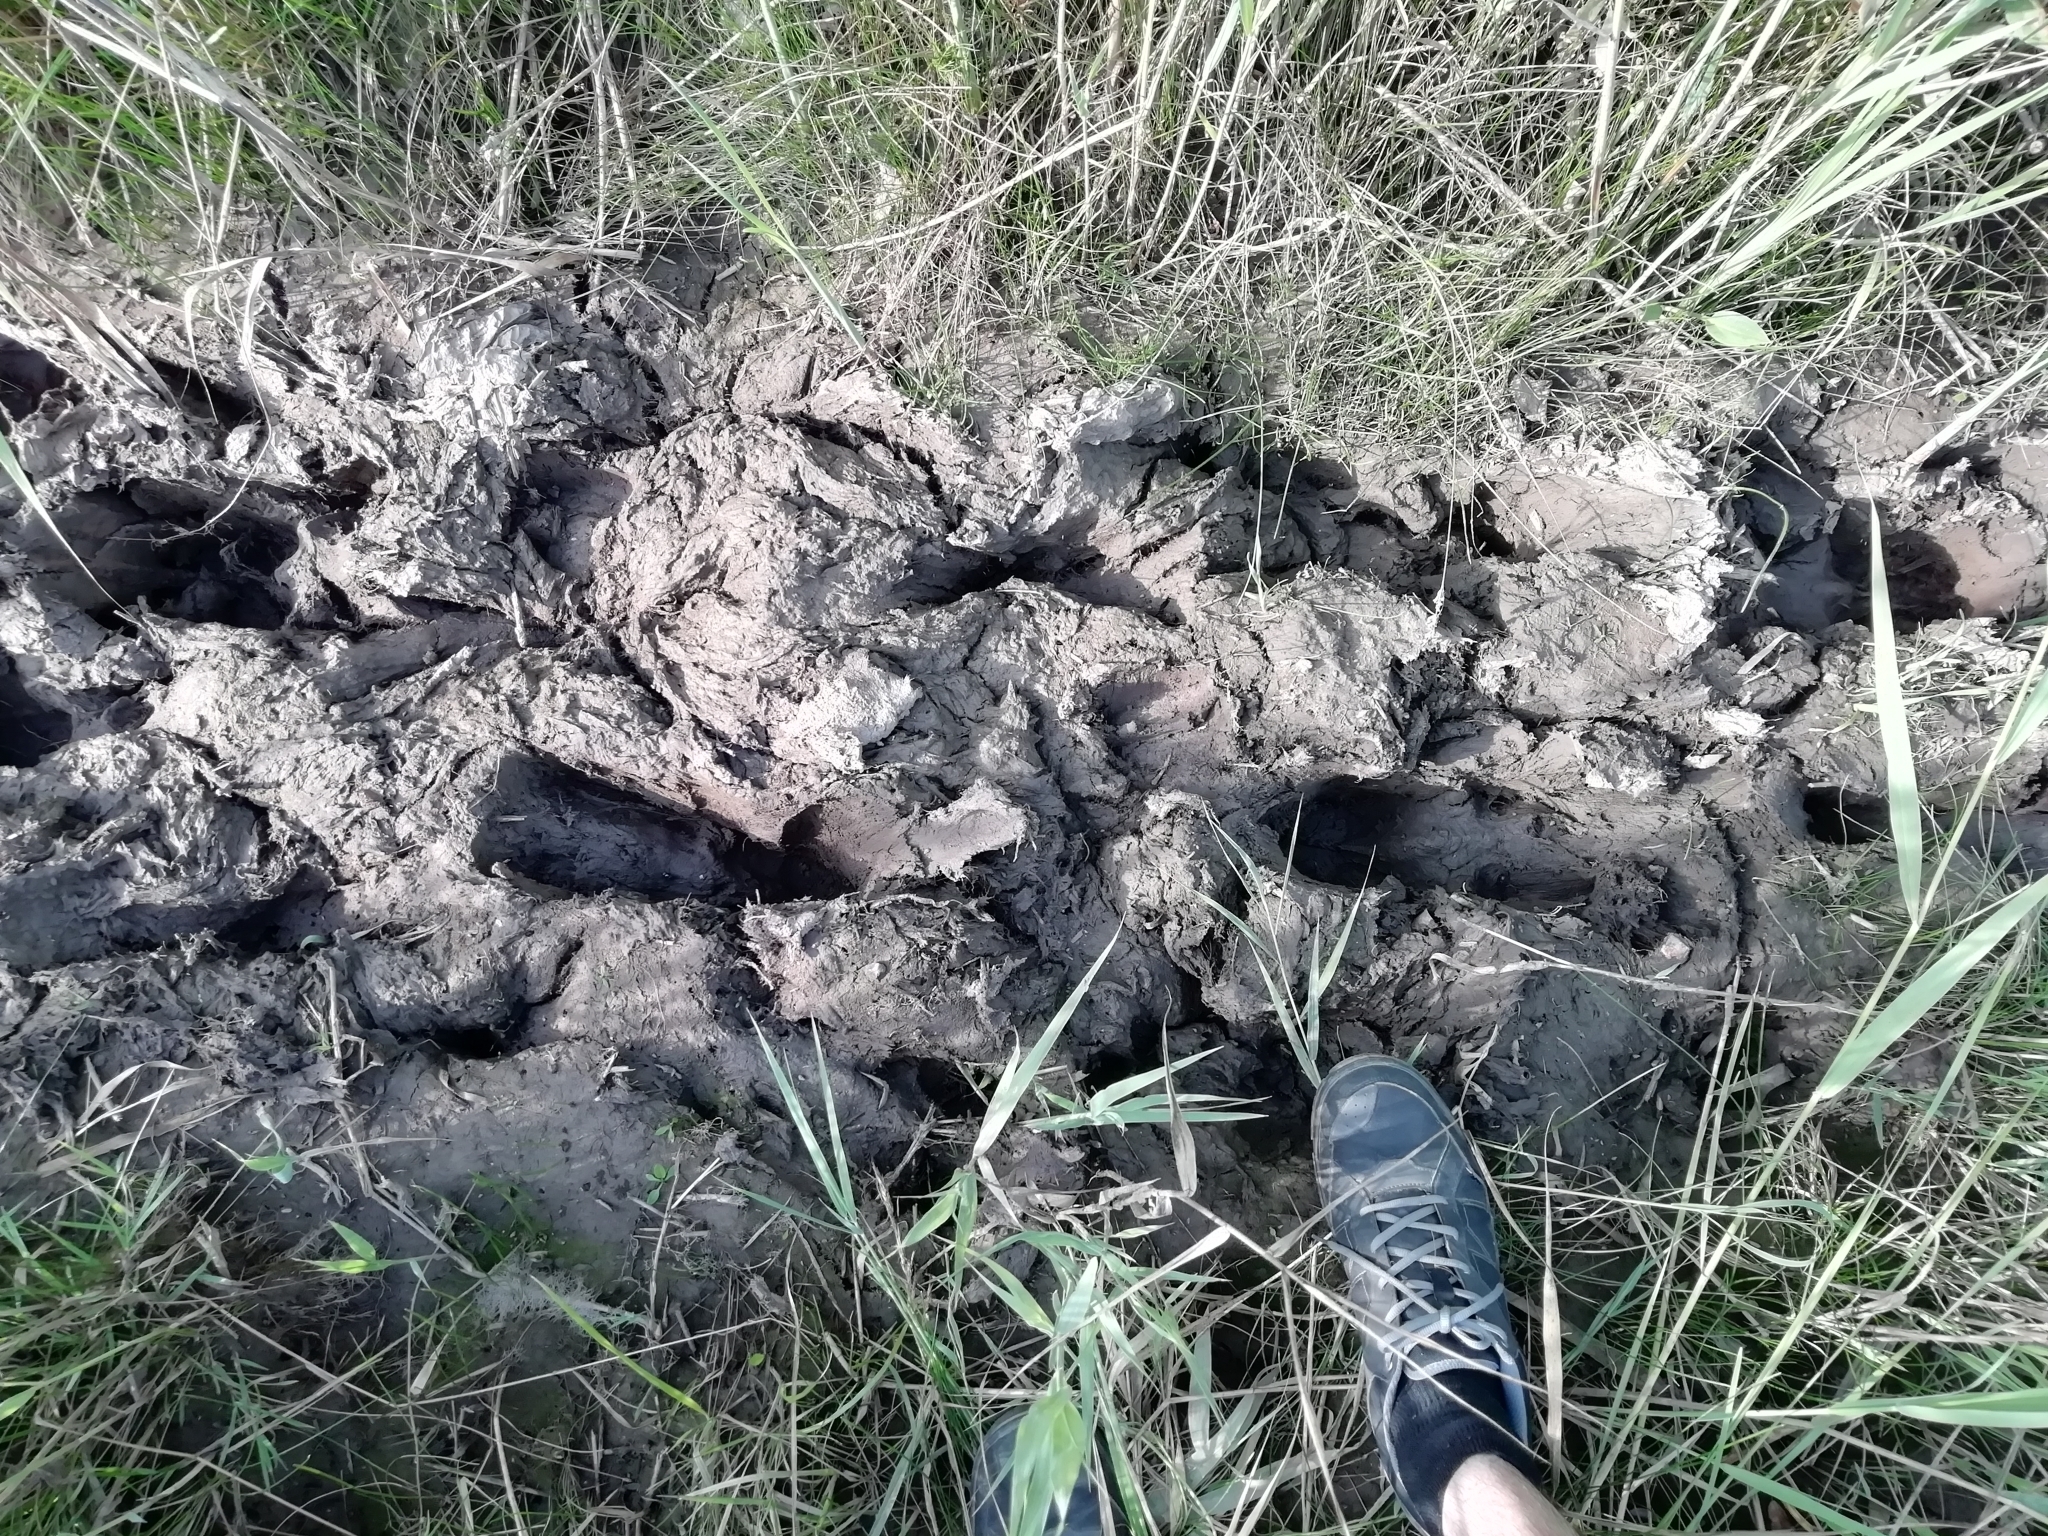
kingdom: Animalia
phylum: Chordata
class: Mammalia
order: Artiodactyla
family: Suidae
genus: Sus
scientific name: Sus scrofa
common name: Wild boar
